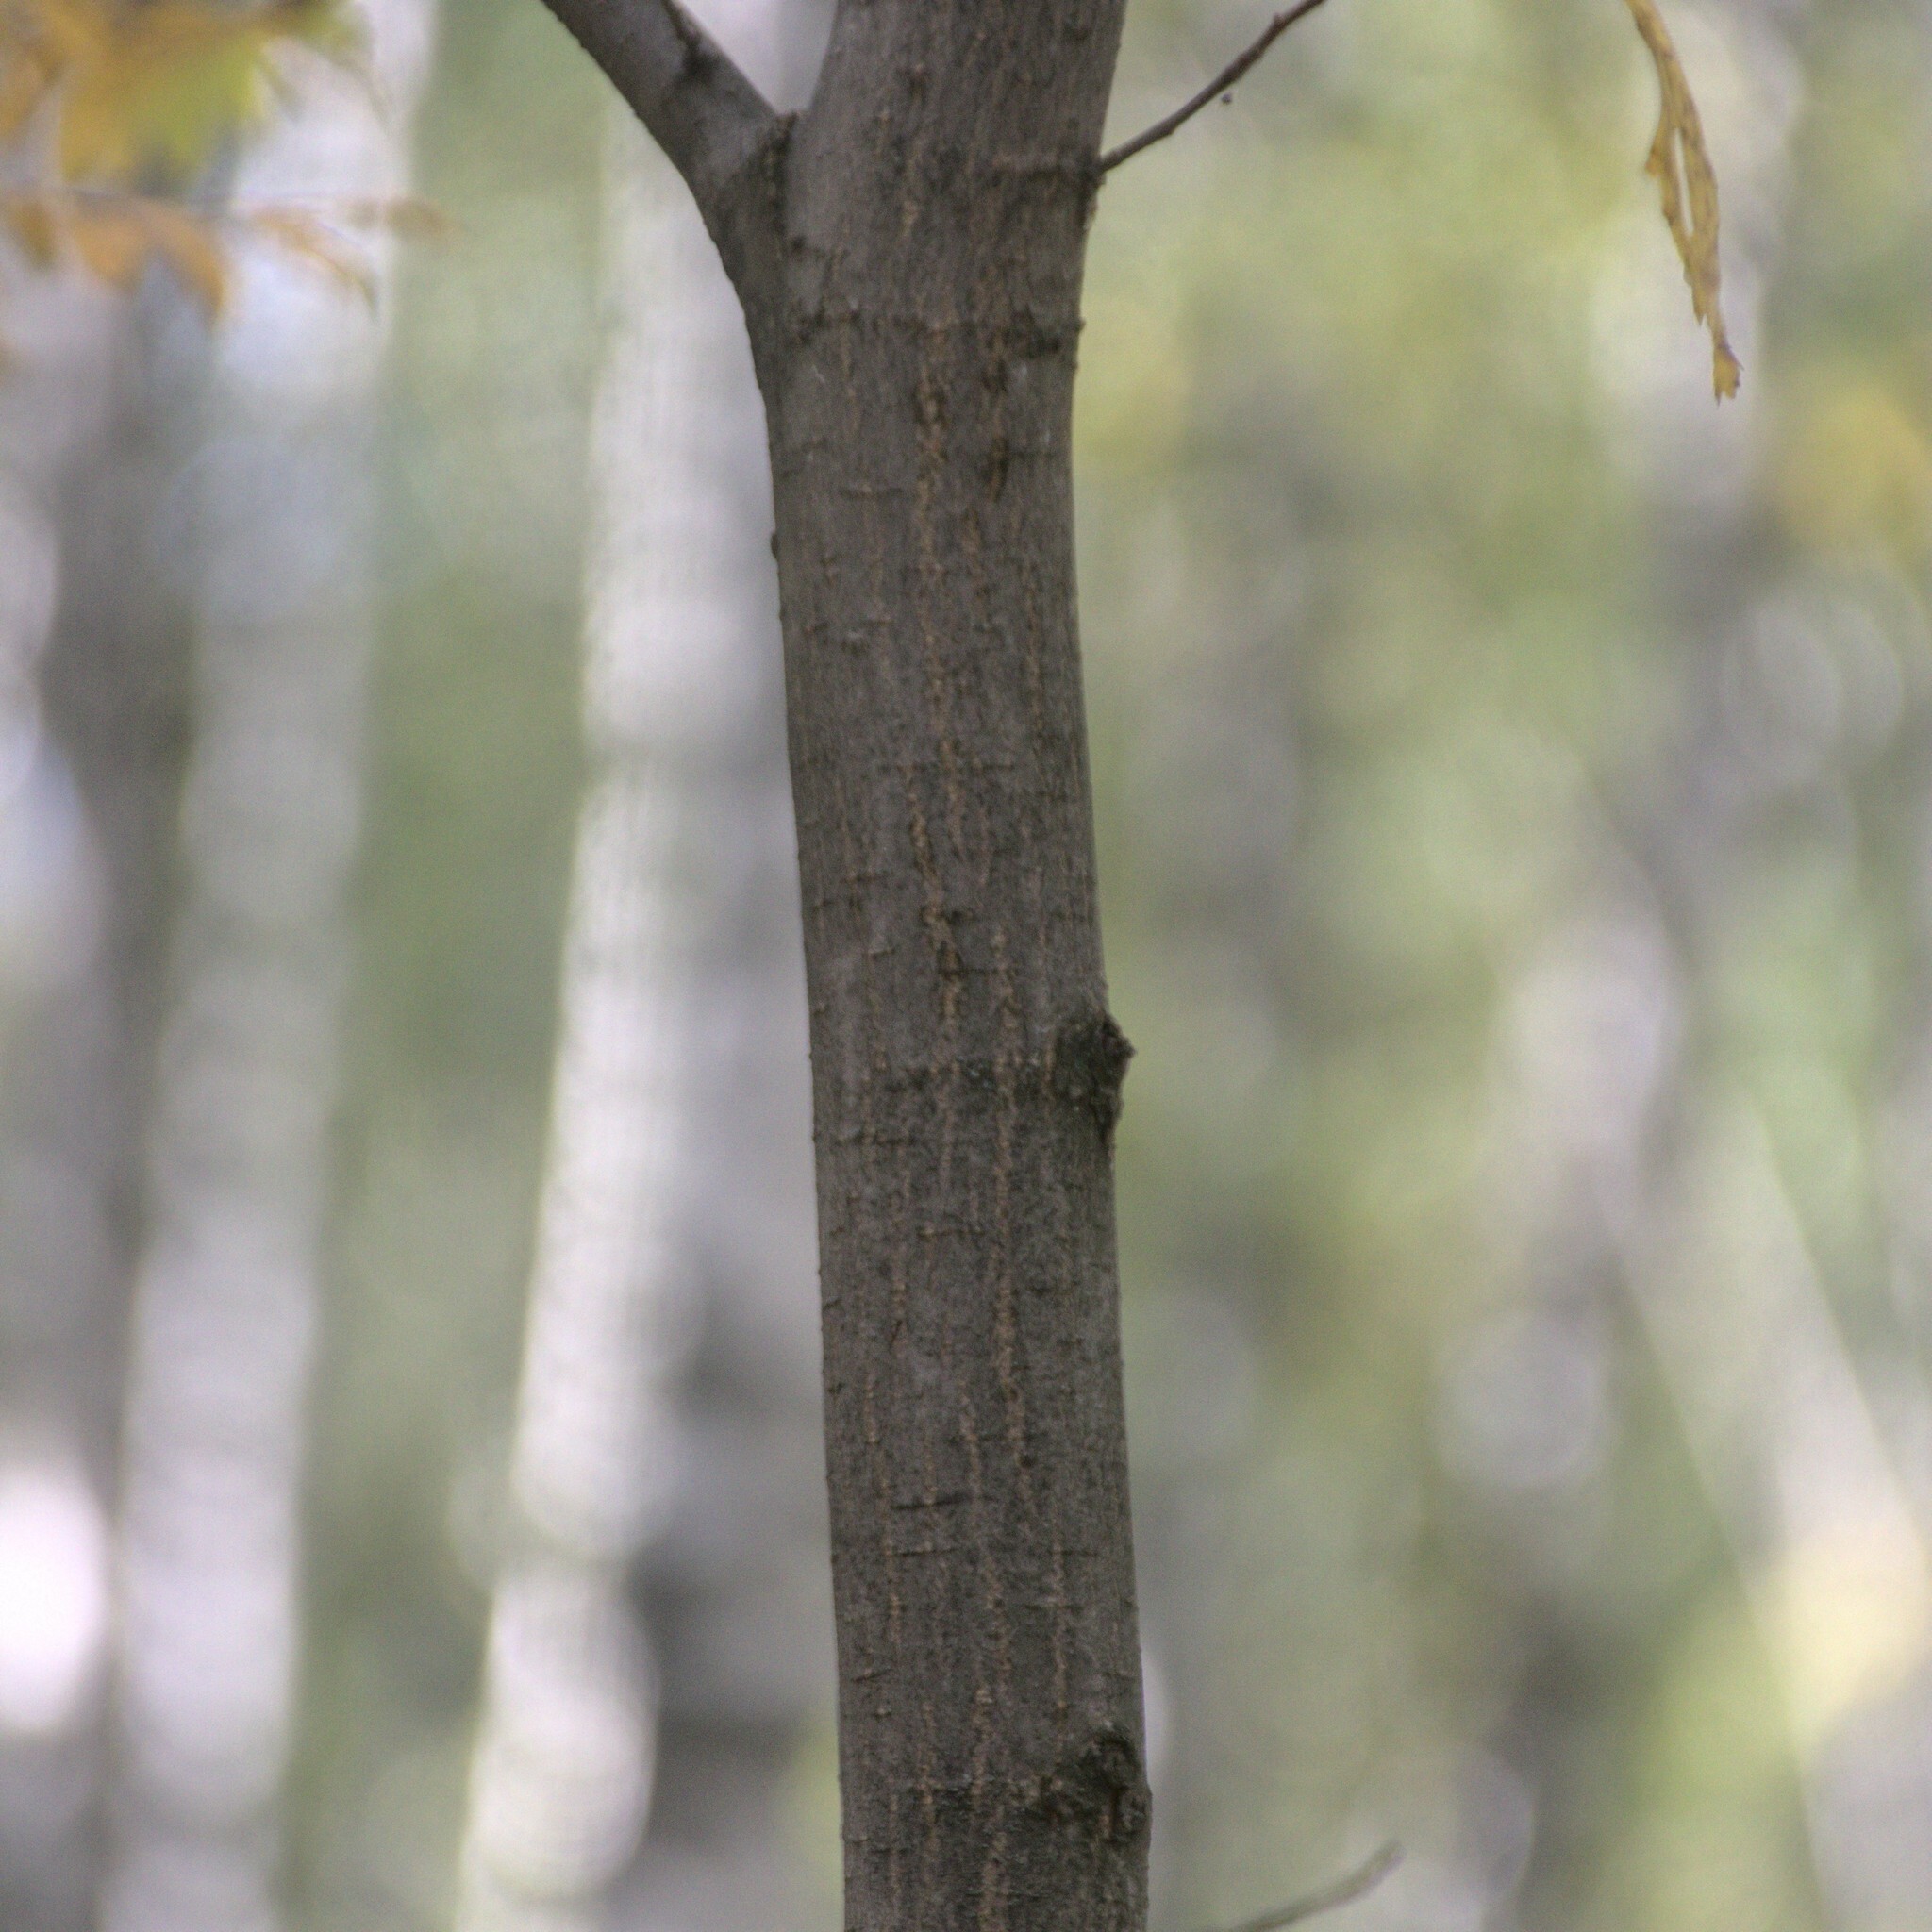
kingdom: Plantae
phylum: Tracheophyta
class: Magnoliopsida
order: Rosales
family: Ulmaceae
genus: Ulmus
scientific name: Ulmus glabra
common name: Wych elm
